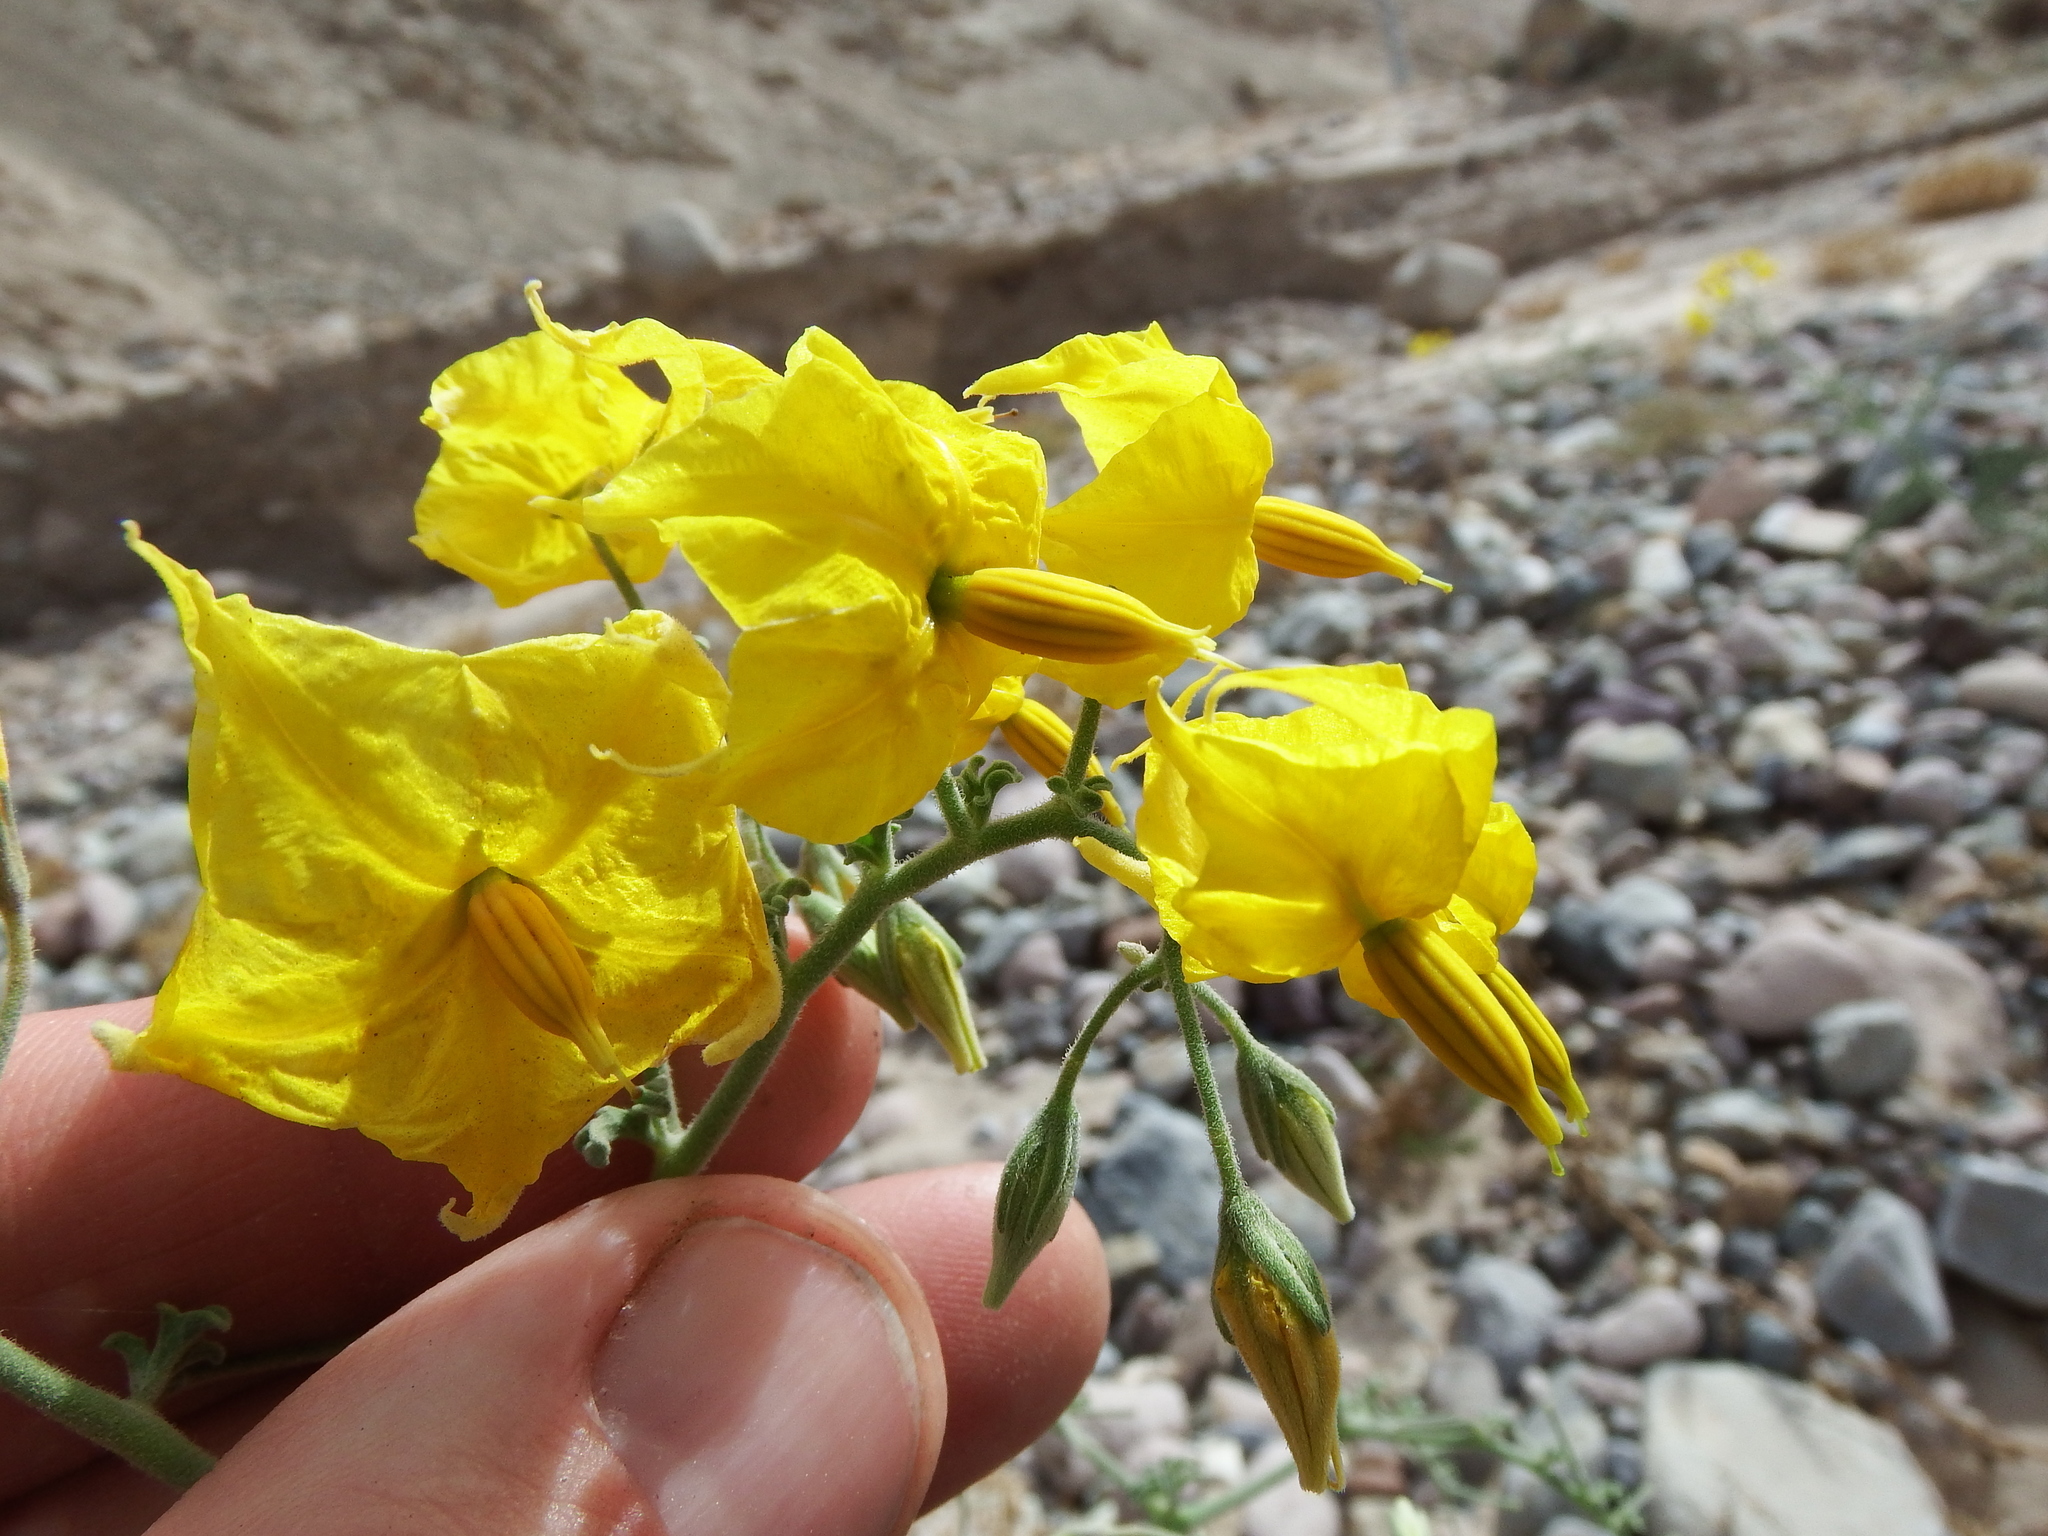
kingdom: Plantae
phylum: Tracheophyta
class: Magnoliopsida
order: Solanales
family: Solanaceae
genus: Solanum
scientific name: Solanum chilense
